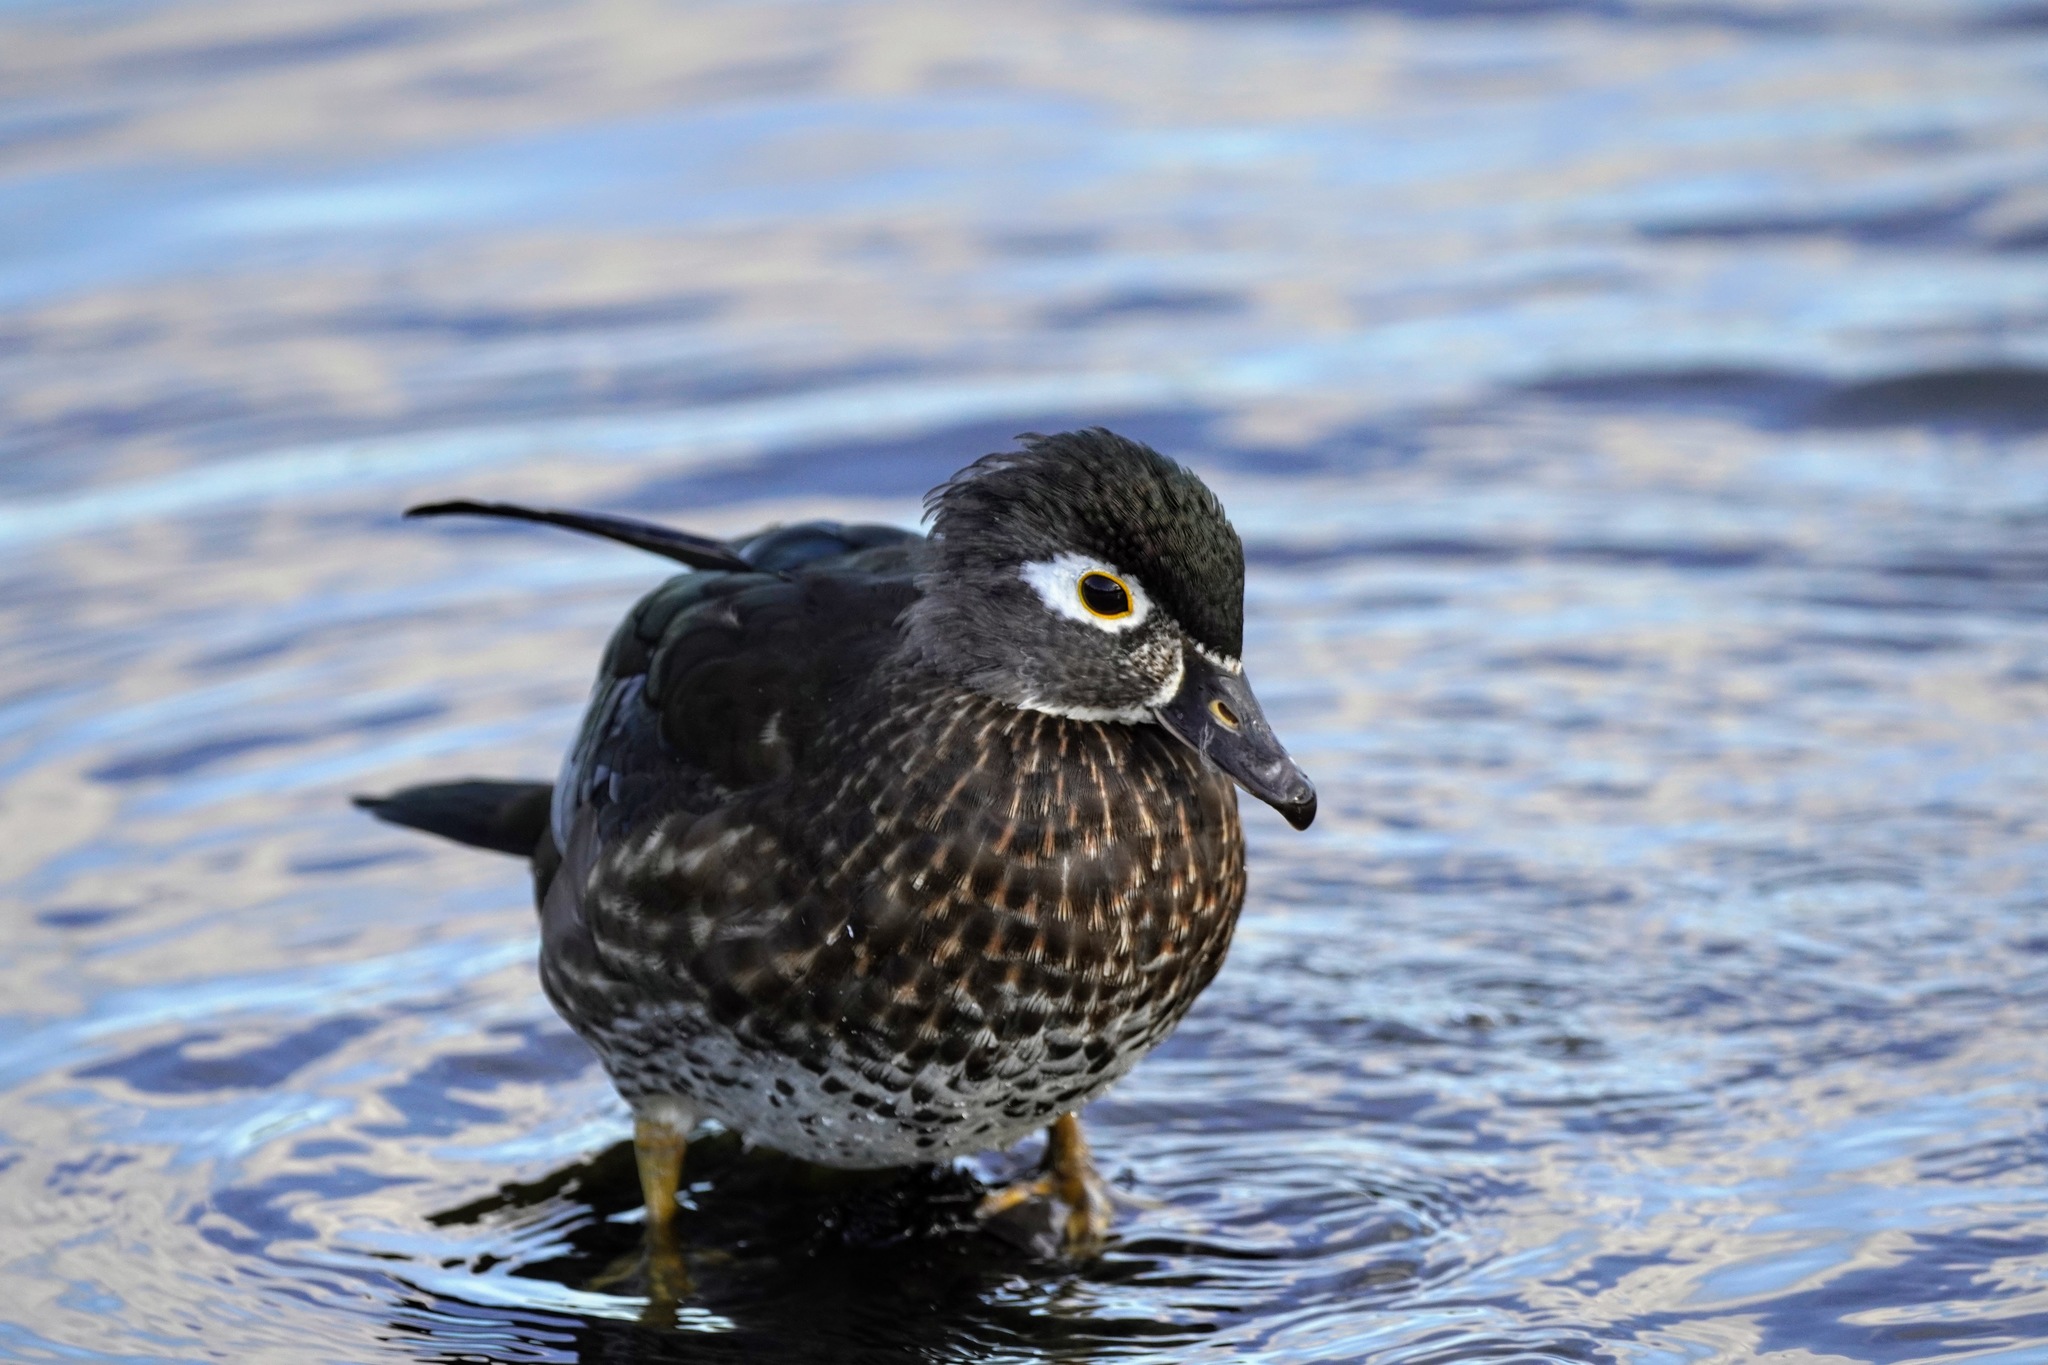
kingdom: Animalia
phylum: Chordata
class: Aves
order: Anseriformes
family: Anatidae
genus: Aix
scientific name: Aix sponsa
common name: Wood duck
